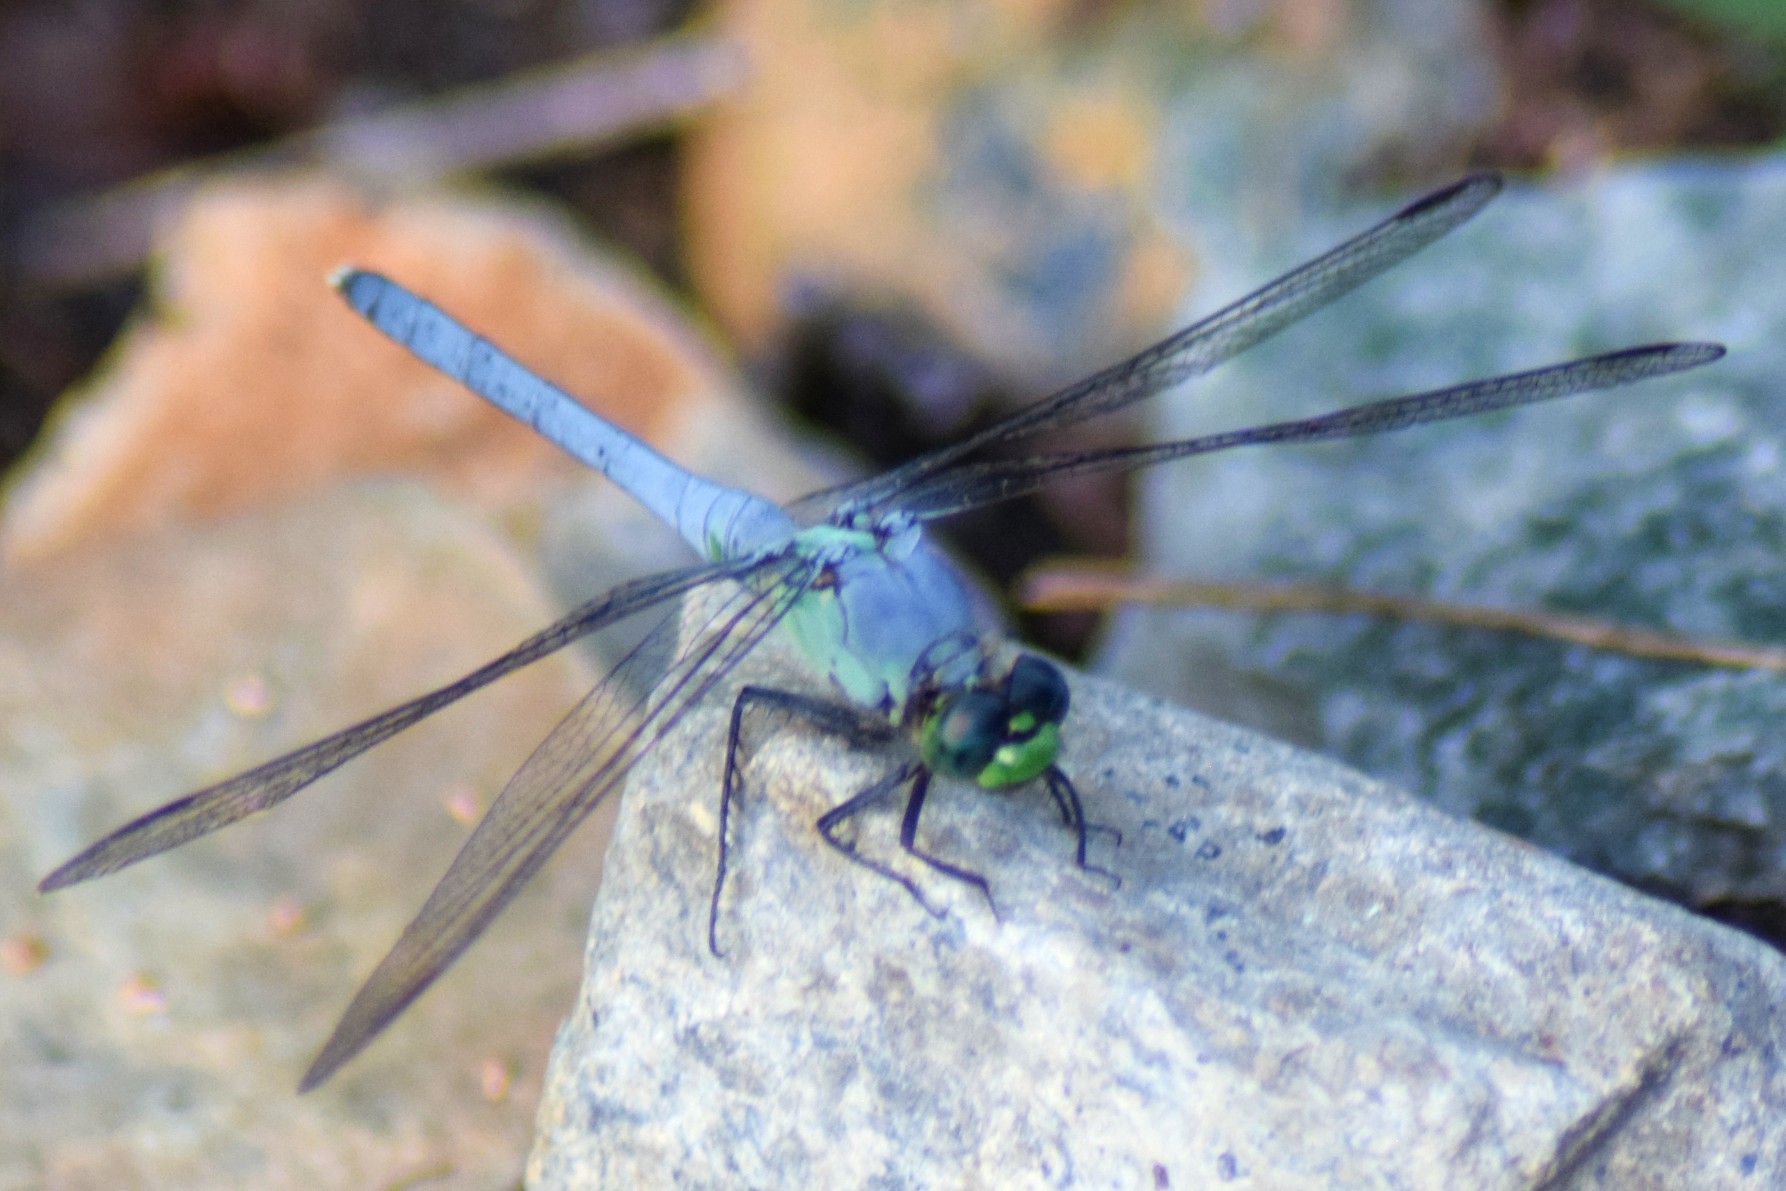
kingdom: Animalia
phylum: Arthropoda
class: Insecta
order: Odonata
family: Libellulidae
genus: Erythemis
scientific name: Erythemis simplicicollis
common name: Eastern pondhawk
